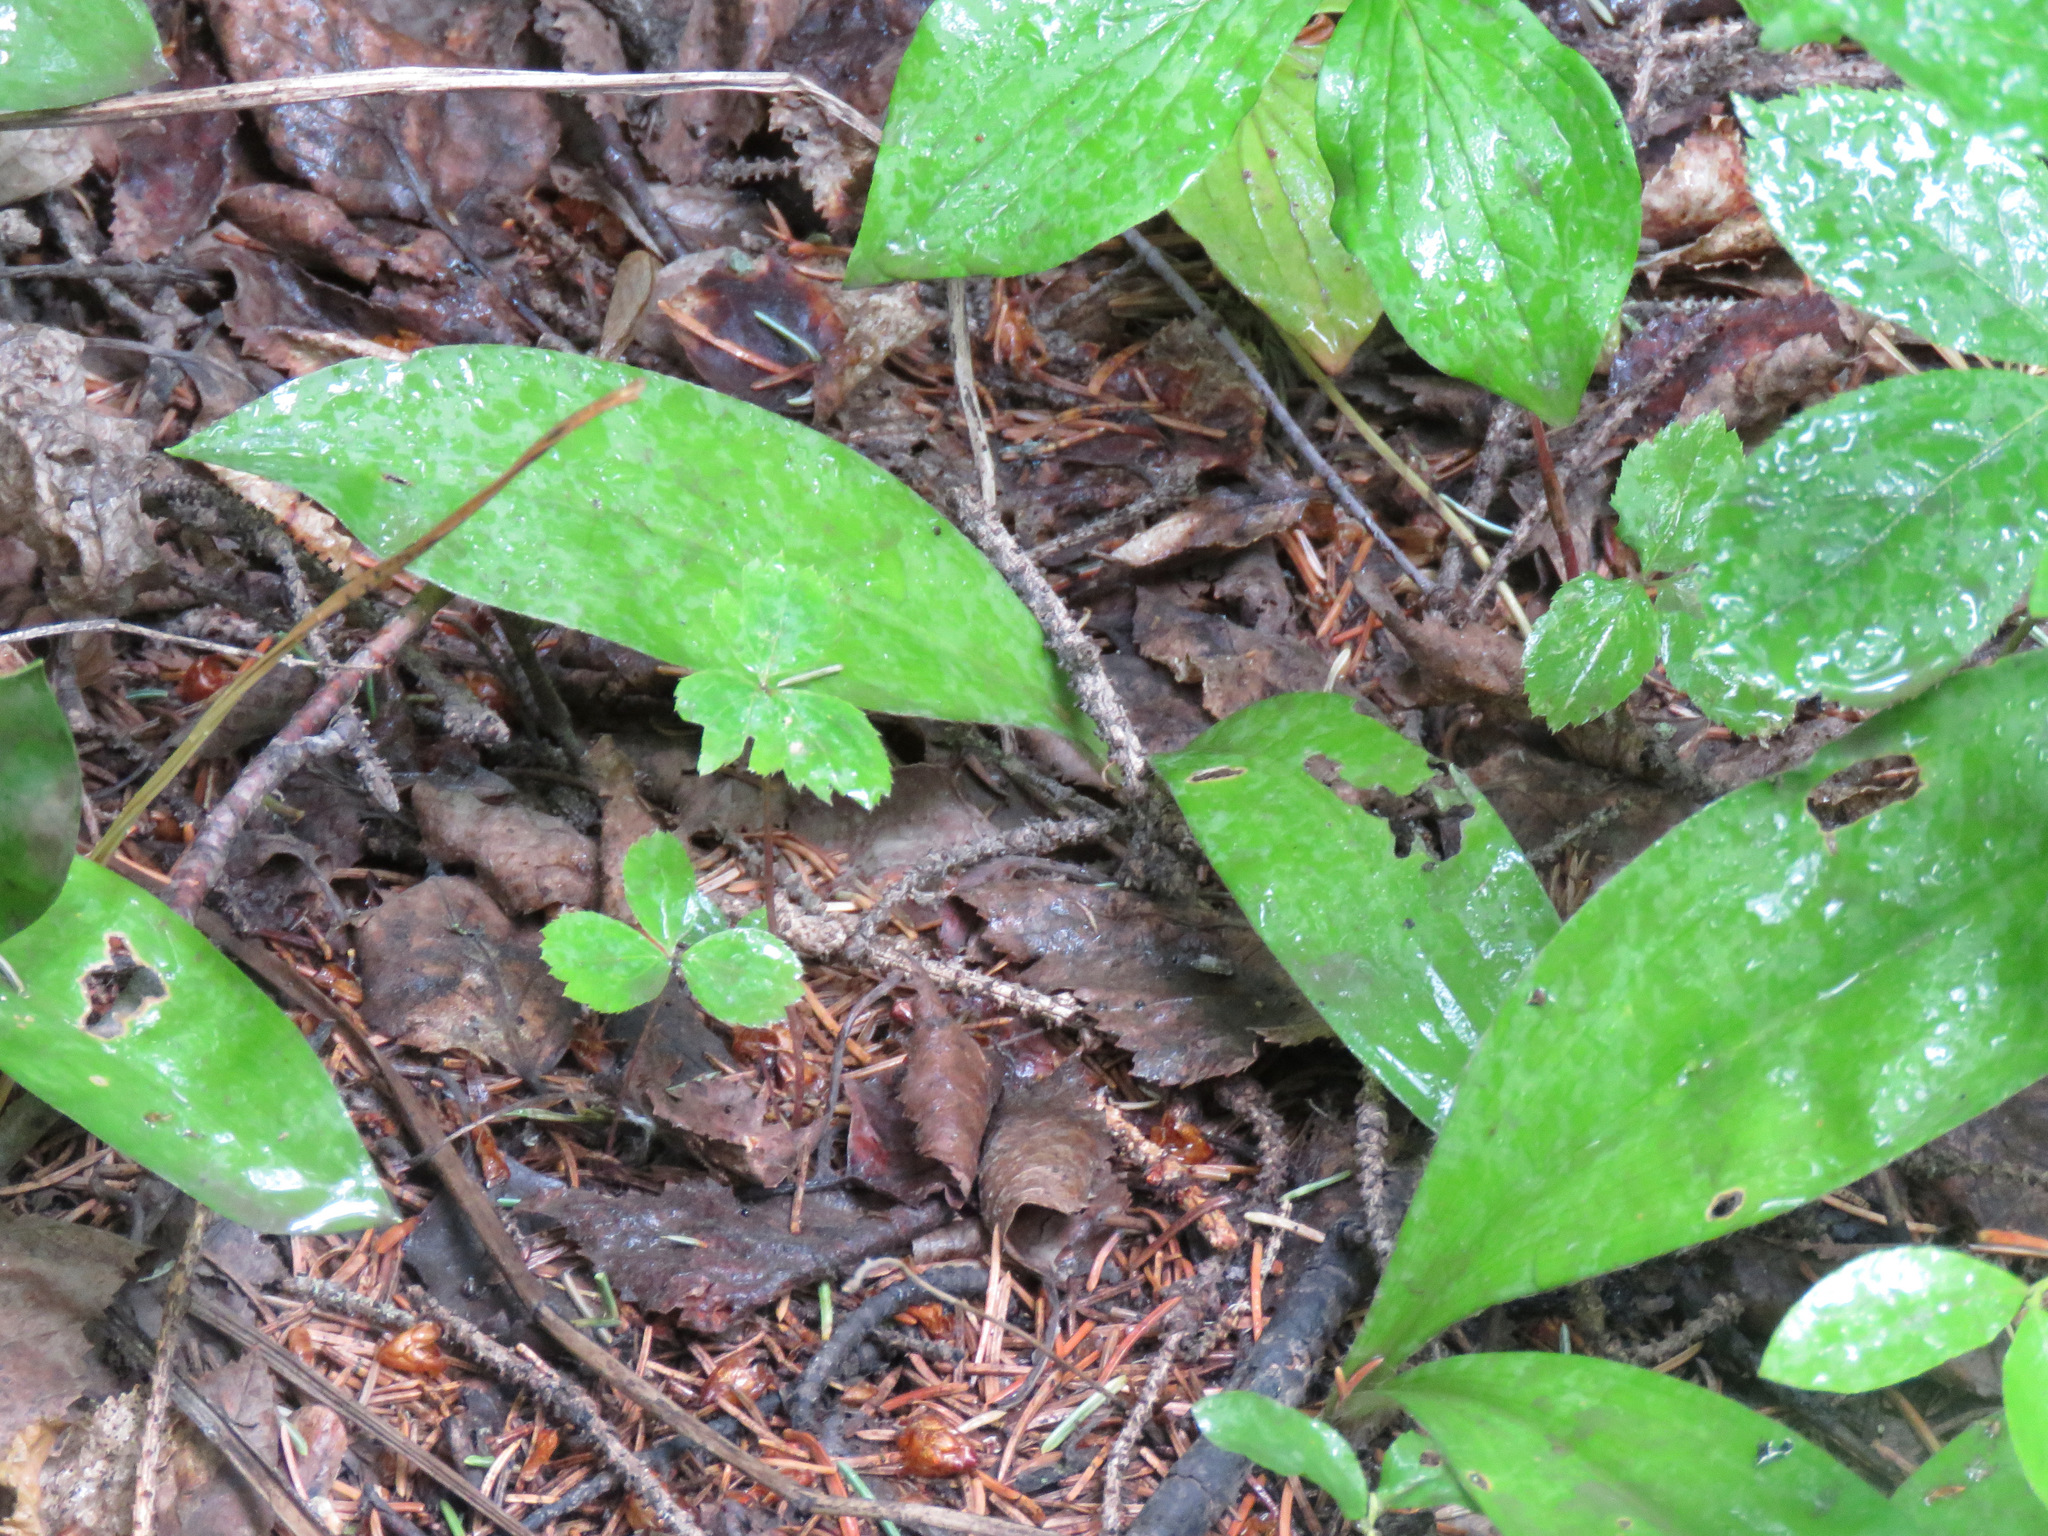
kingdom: Plantae
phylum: Tracheophyta
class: Liliopsida
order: Liliales
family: Liliaceae
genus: Clintonia
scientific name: Clintonia uniflora
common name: Queen's cup
